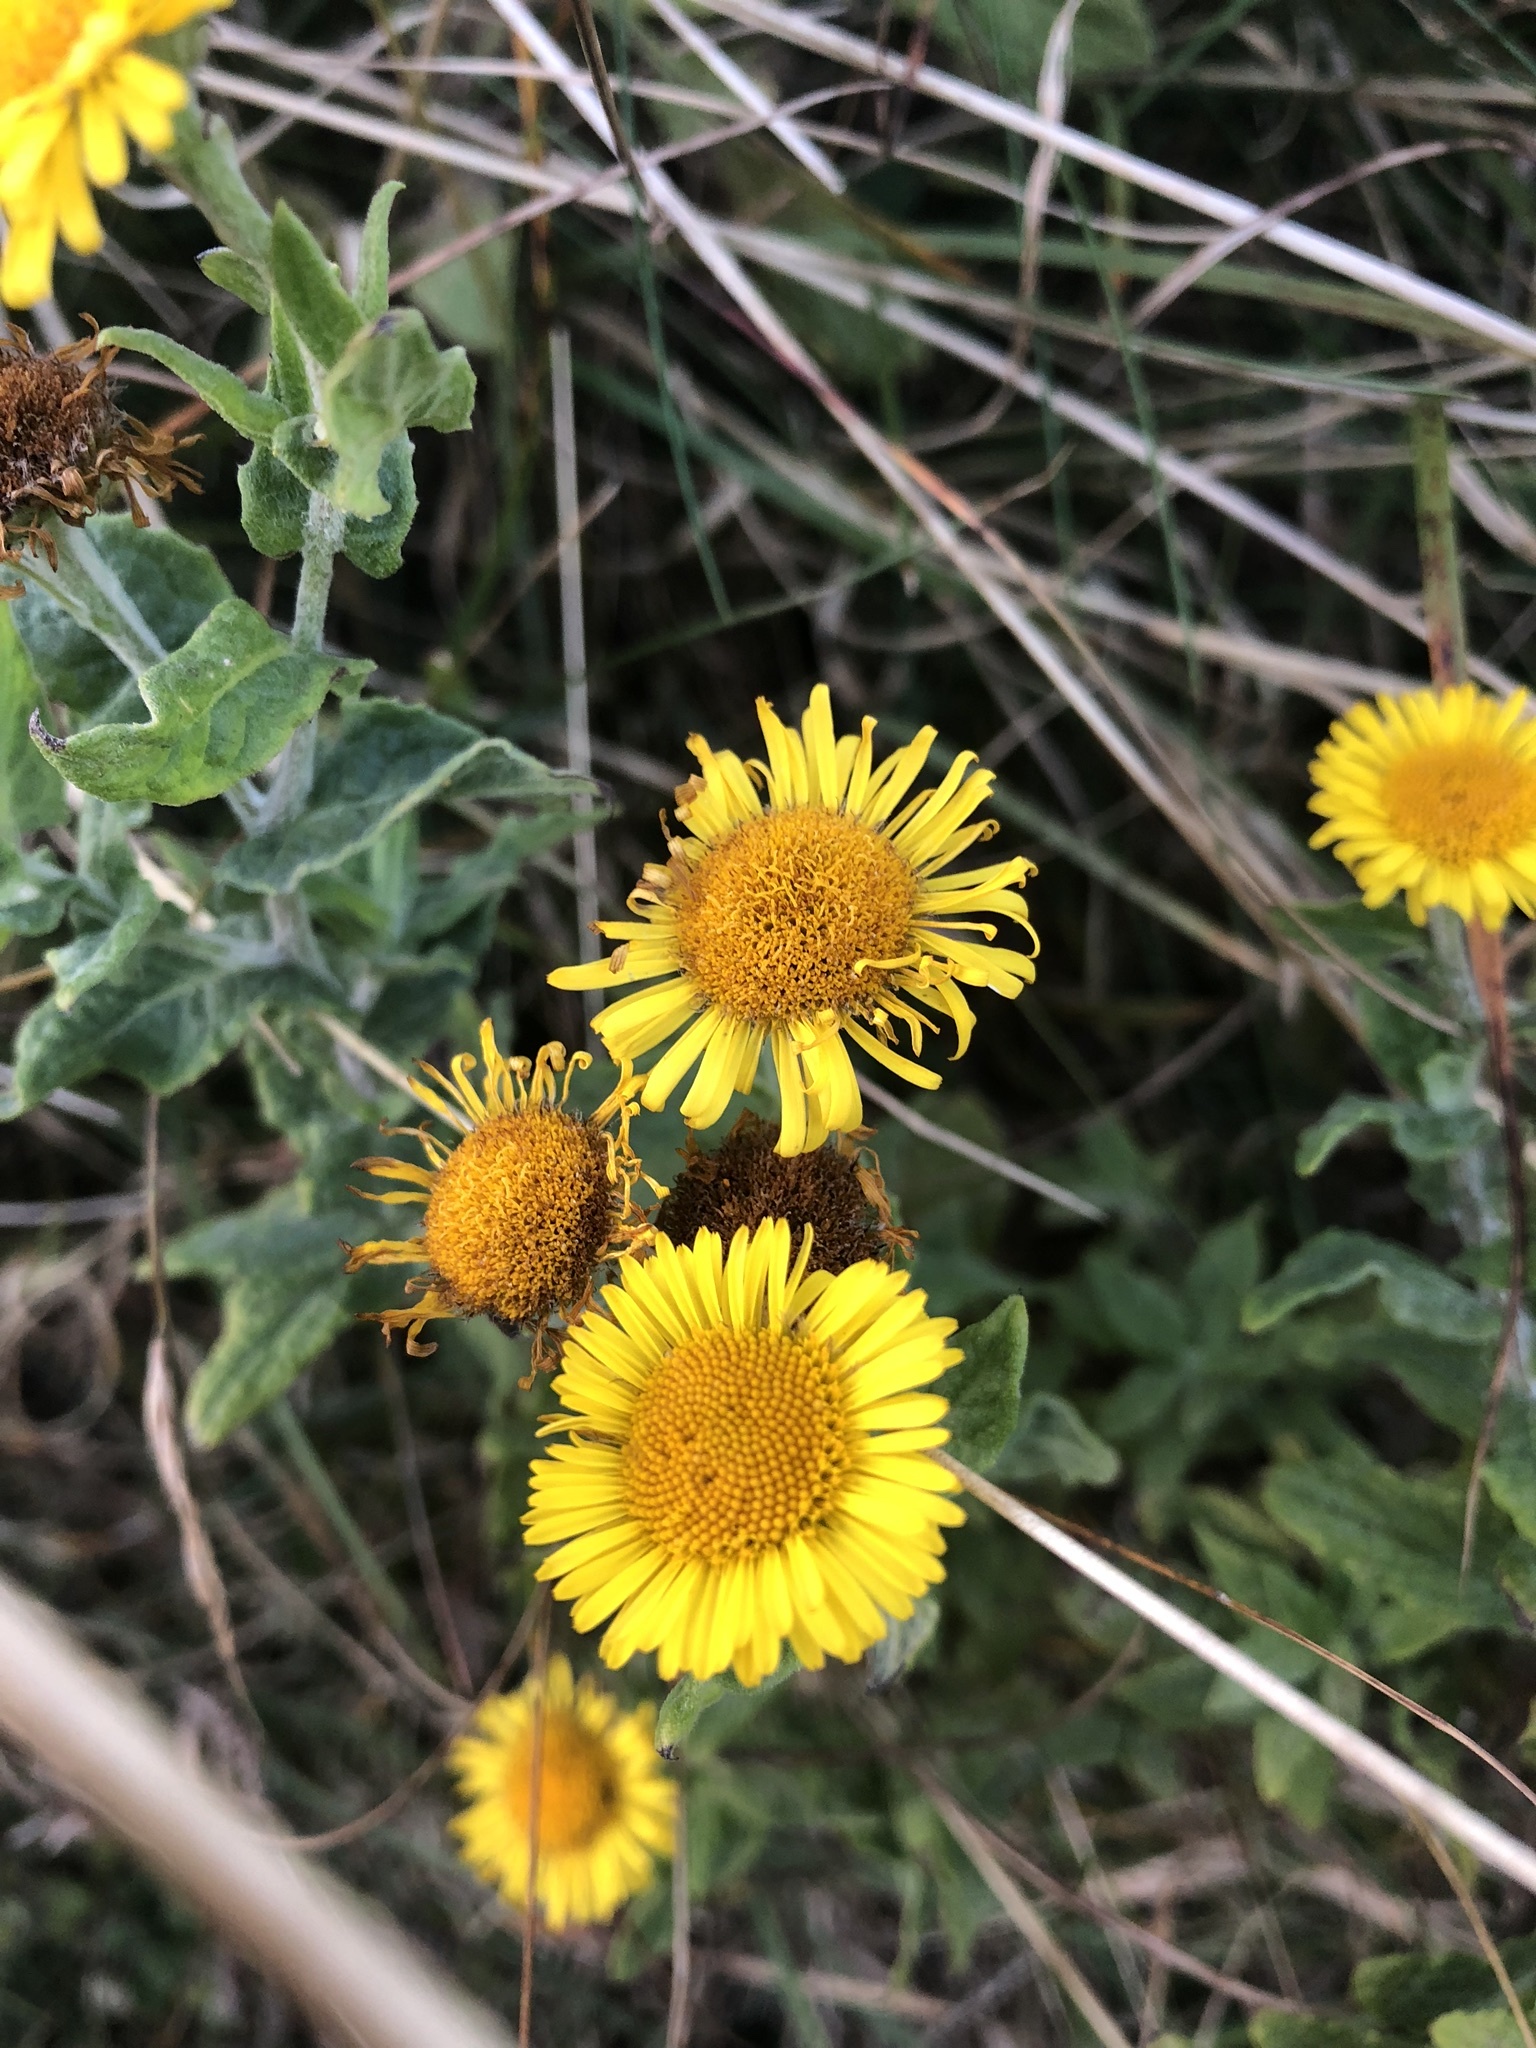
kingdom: Plantae
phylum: Tracheophyta
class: Magnoliopsida
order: Asterales
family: Asteraceae
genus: Pulicaria
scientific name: Pulicaria dysenterica
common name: Common fleabane
